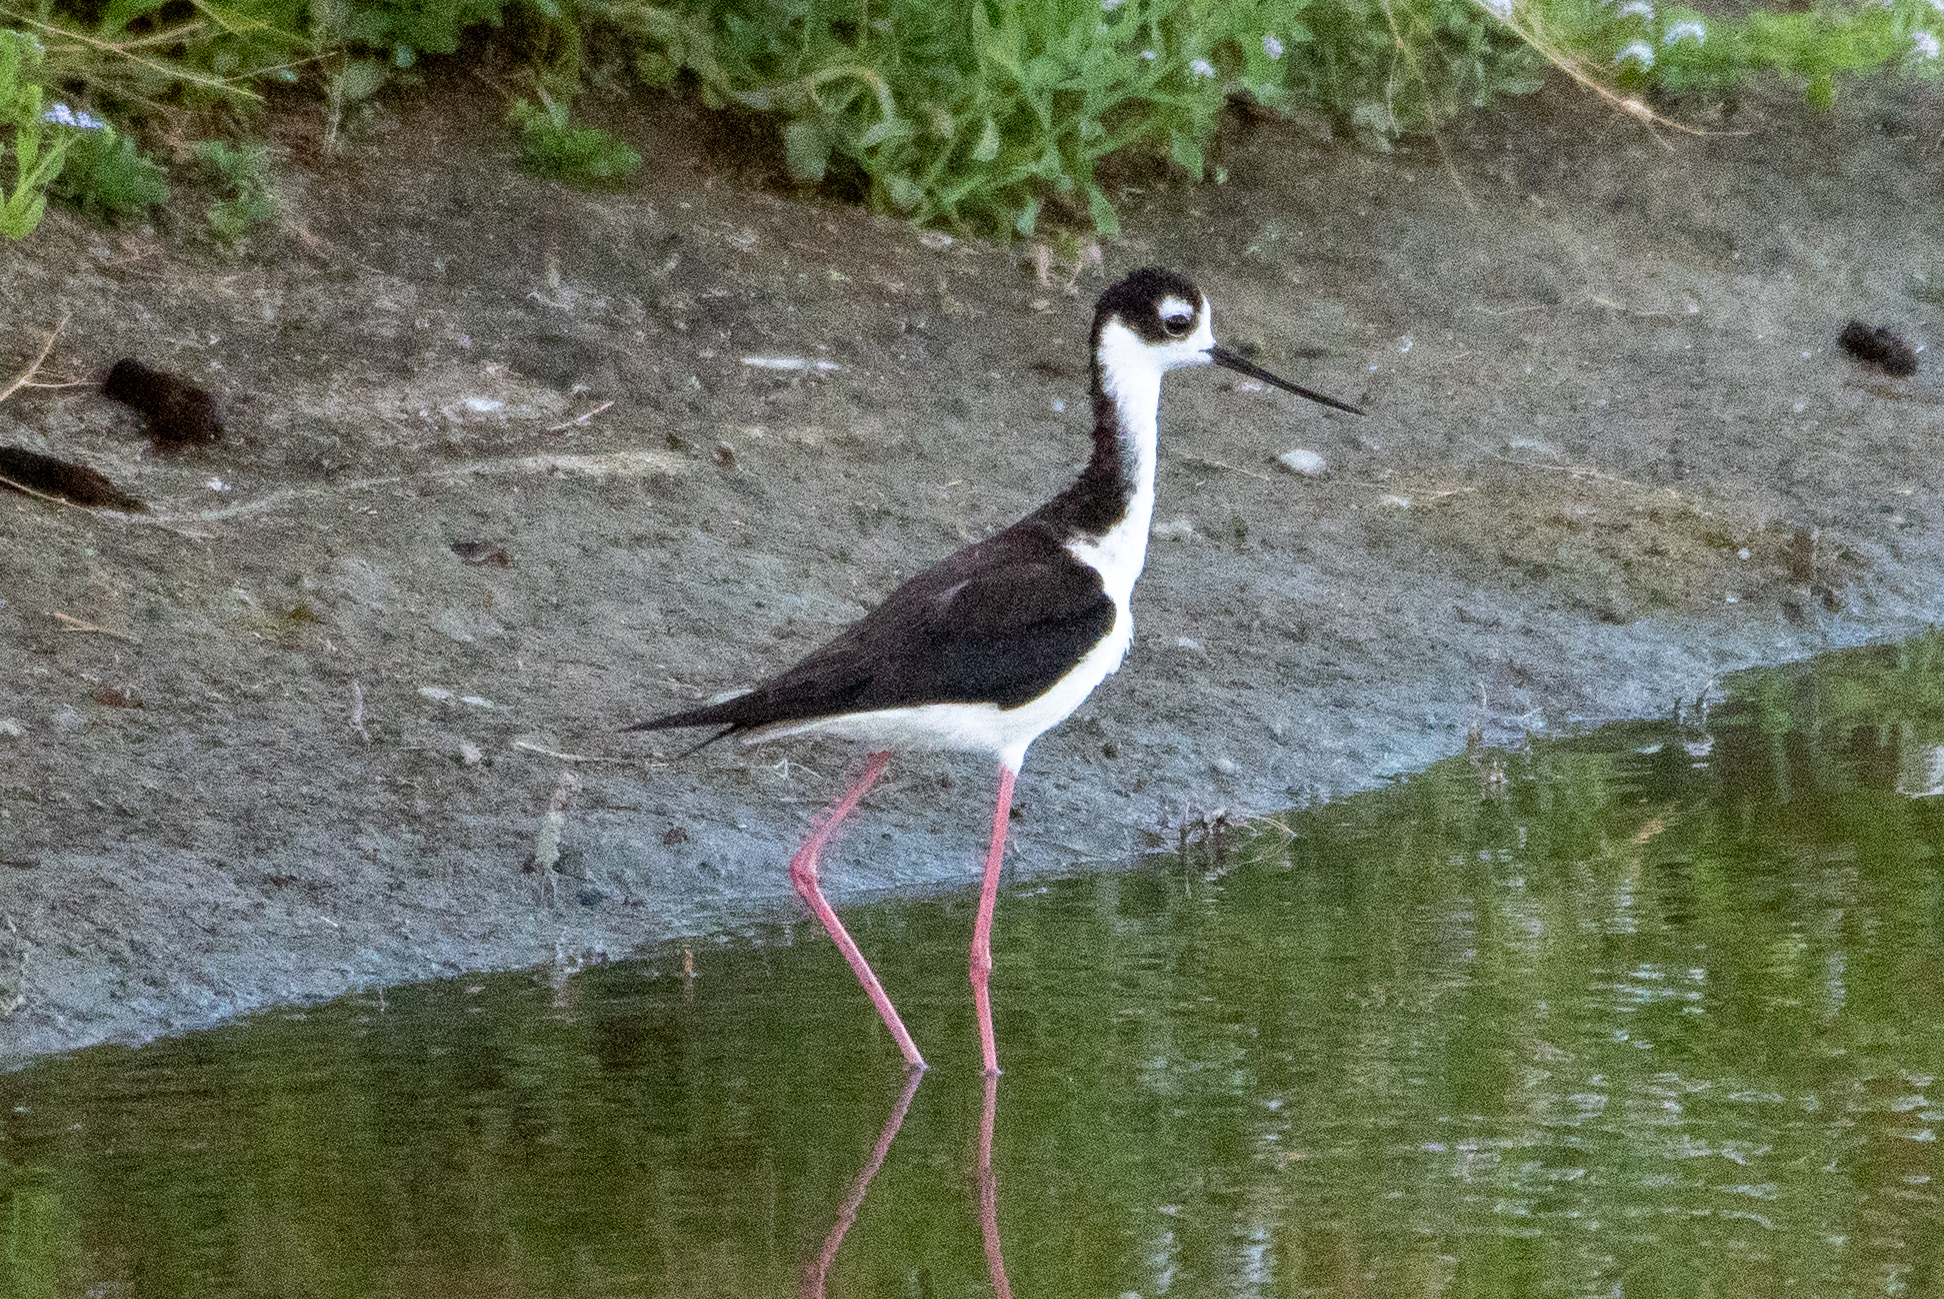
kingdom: Animalia
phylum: Chordata
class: Aves
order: Charadriiformes
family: Recurvirostridae
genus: Himantopus
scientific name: Himantopus mexicanus
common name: Black-necked stilt
